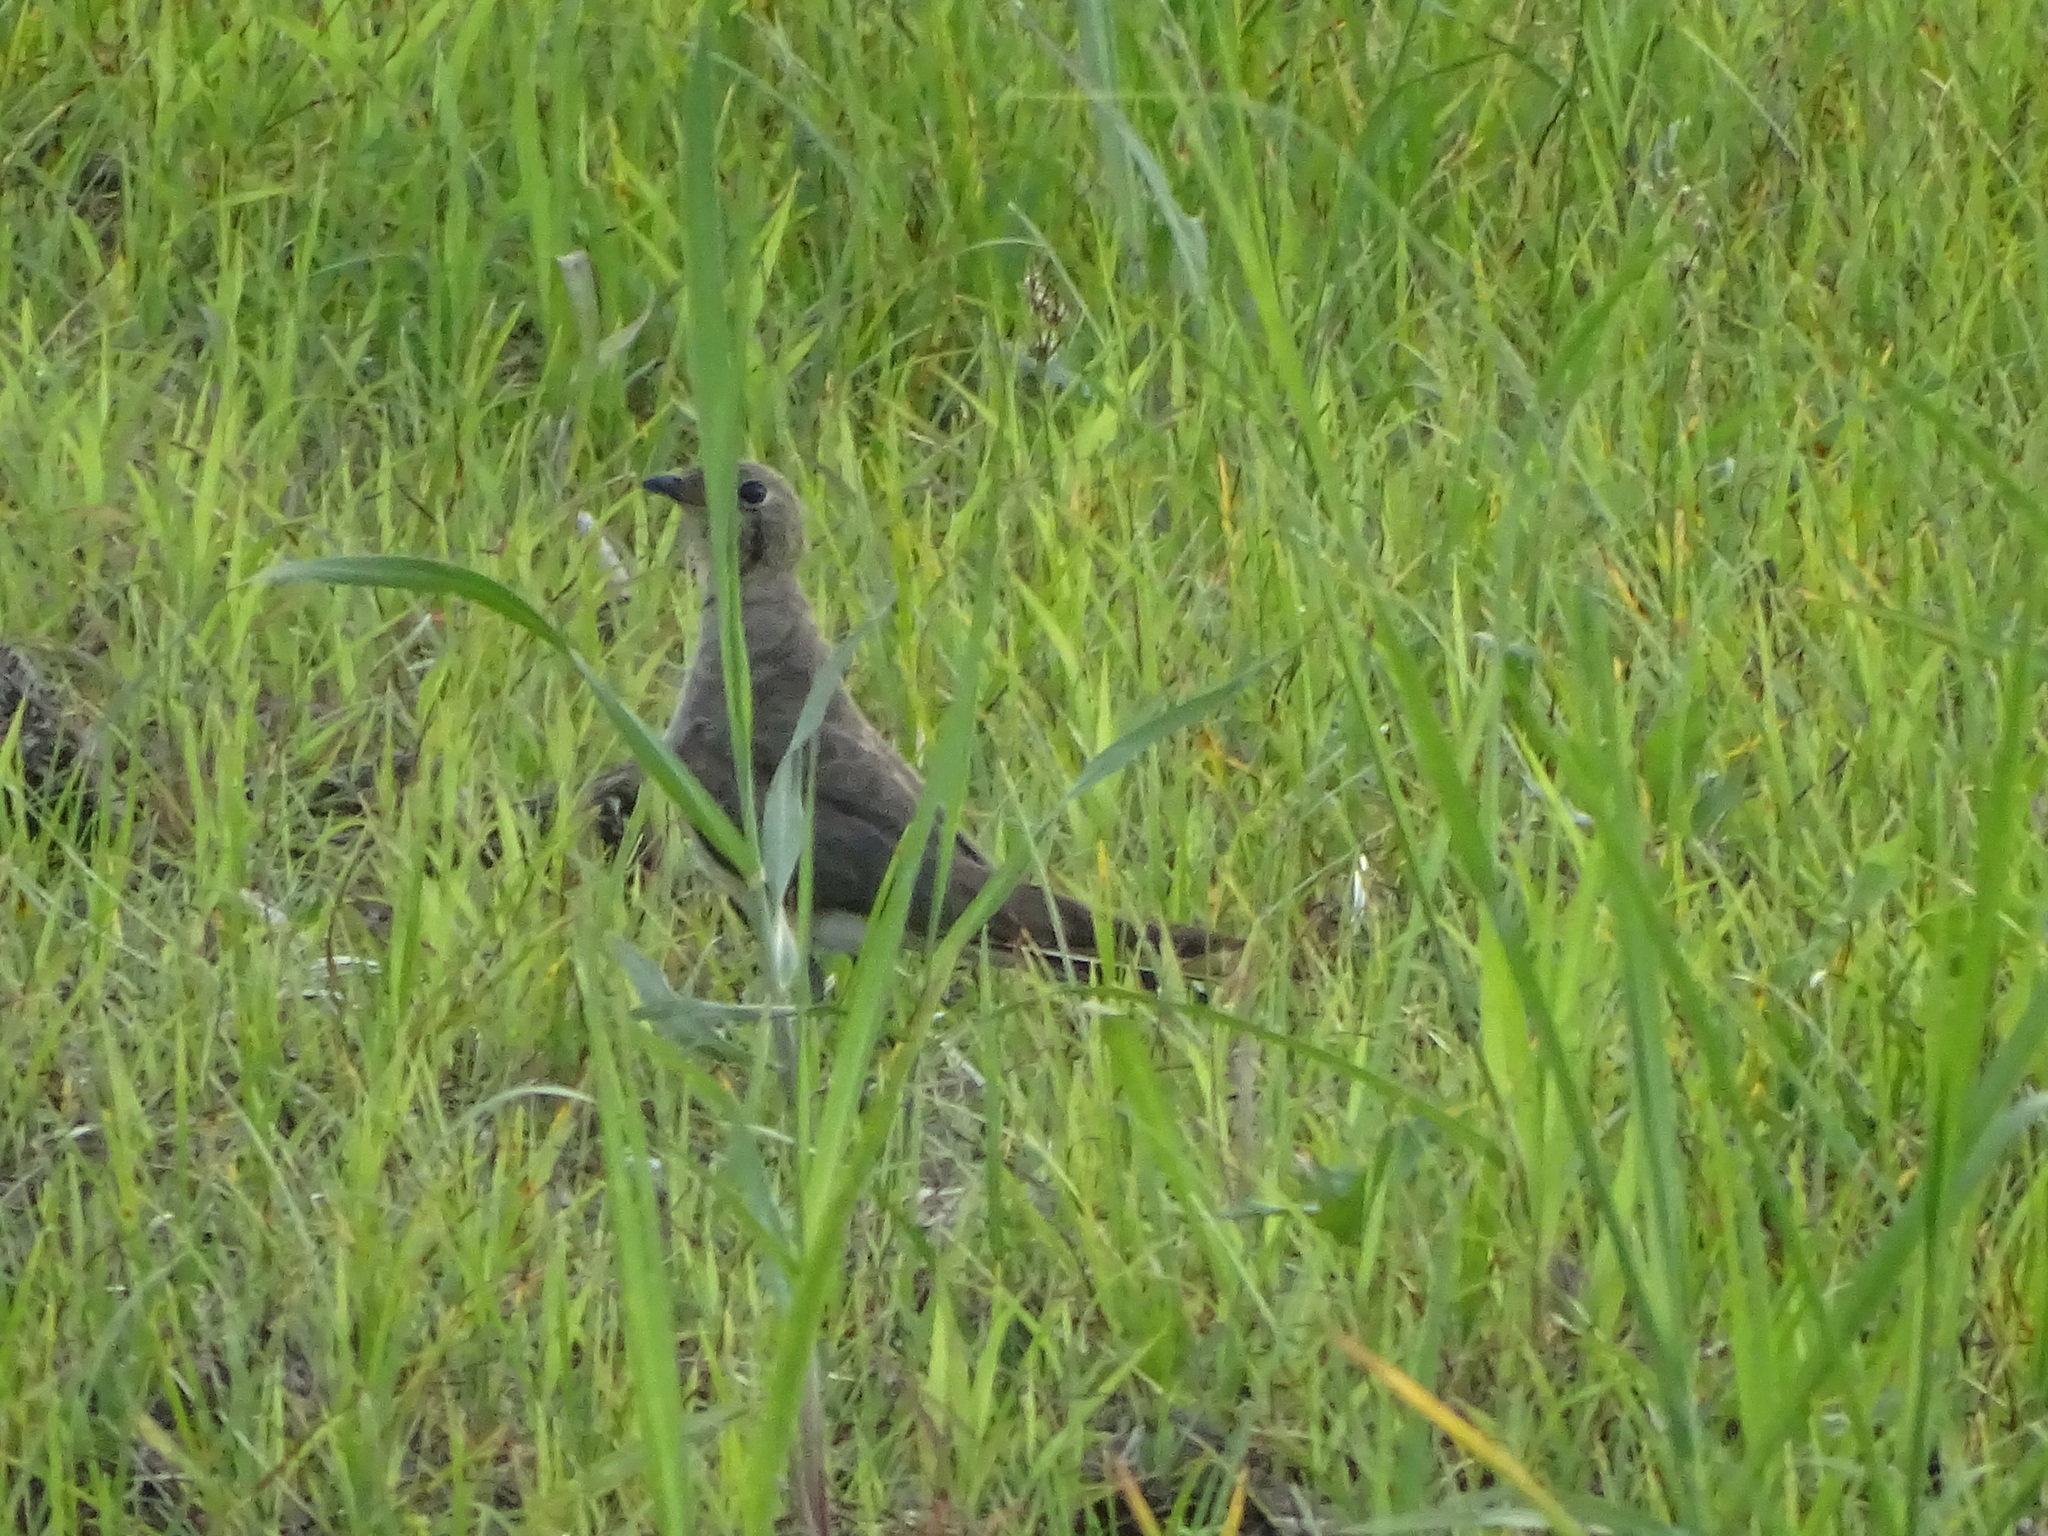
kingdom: Animalia
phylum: Chordata
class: Aves
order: Charadriiformes
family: Glareolidae
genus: Glareola
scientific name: Glareola maldivarum
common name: Oriental pratincole
